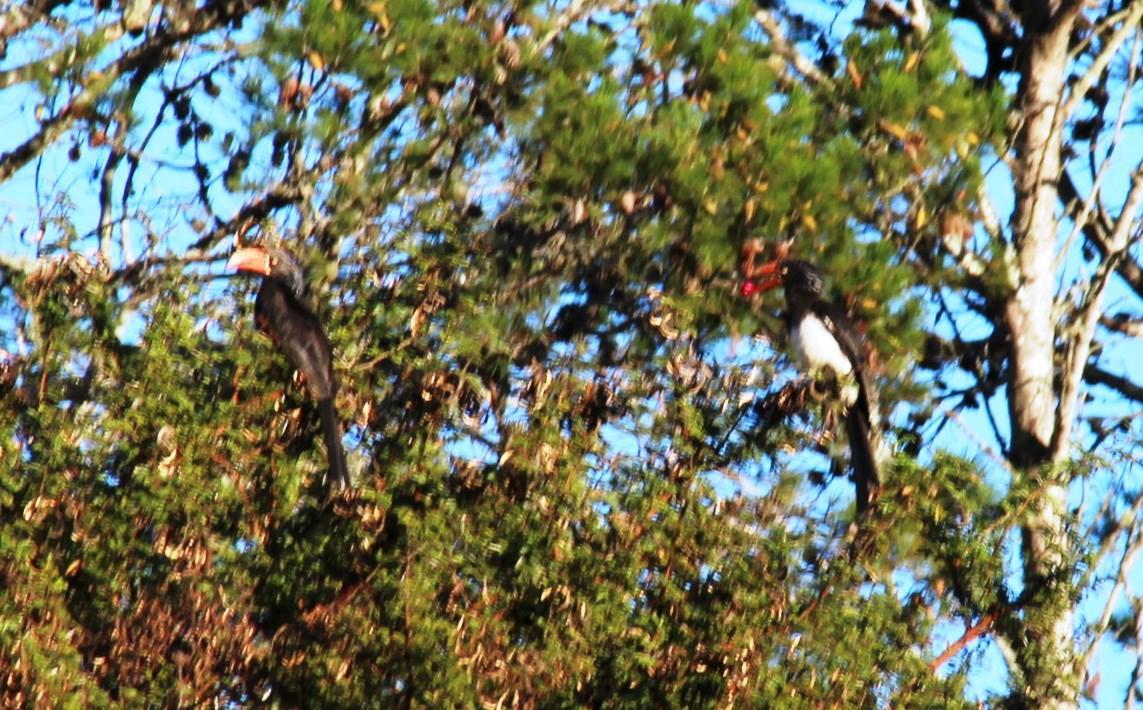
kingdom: Animalia
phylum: Chordata
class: Aves
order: Bucerotiformes
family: Bucerotidae
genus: Lophoceros
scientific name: Lophoceros alboterminatus
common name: Crowned hornbill
